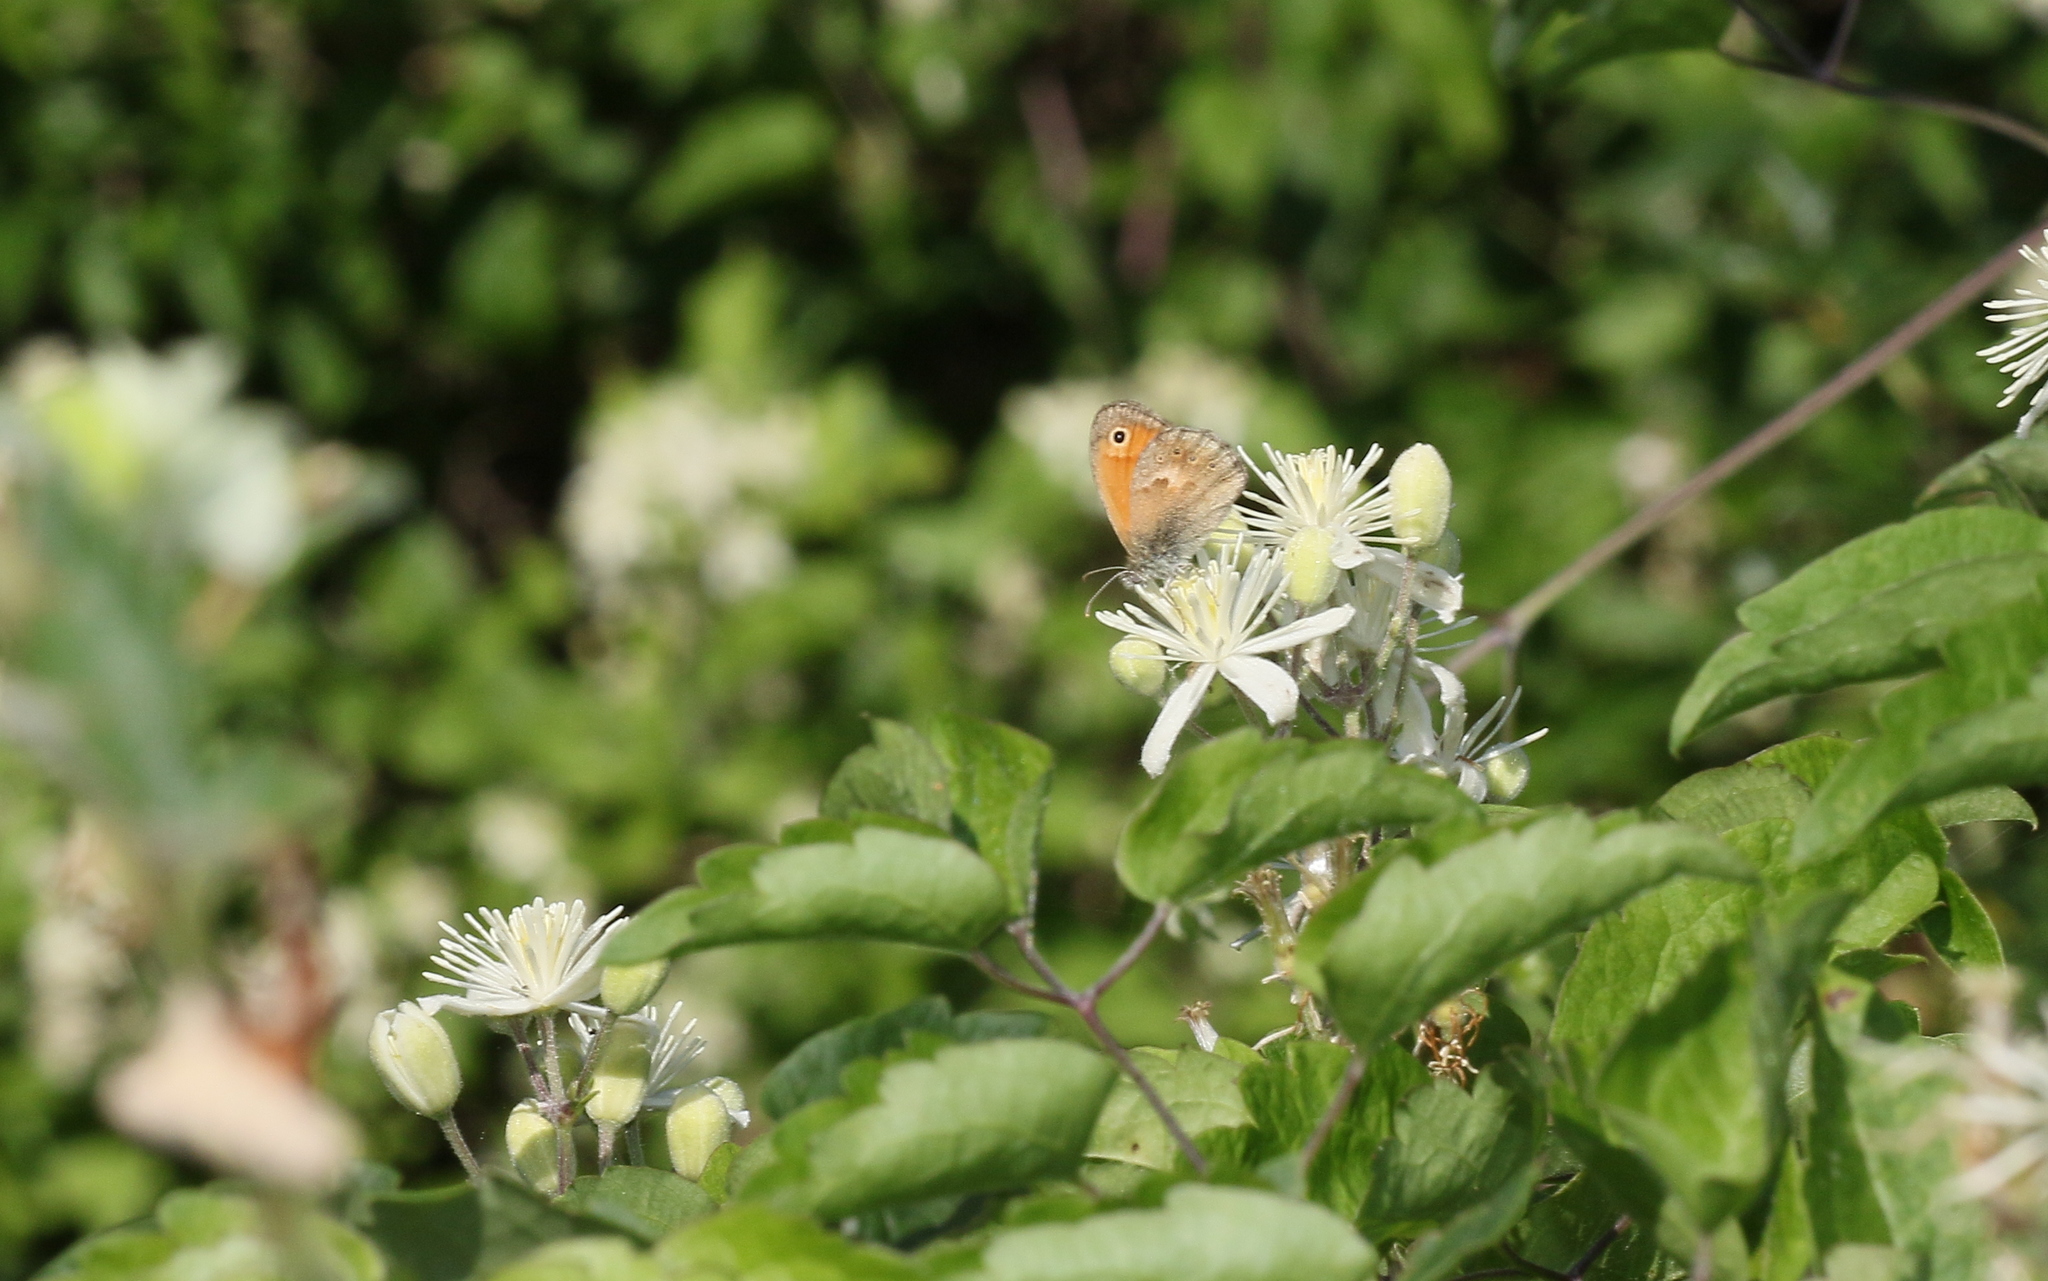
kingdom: Animalia
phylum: Arthropoda
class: Insecta
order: Lepidoptera
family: Nymphalidae
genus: Coenonympha
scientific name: Coenonympha pamphilus
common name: Small heath
